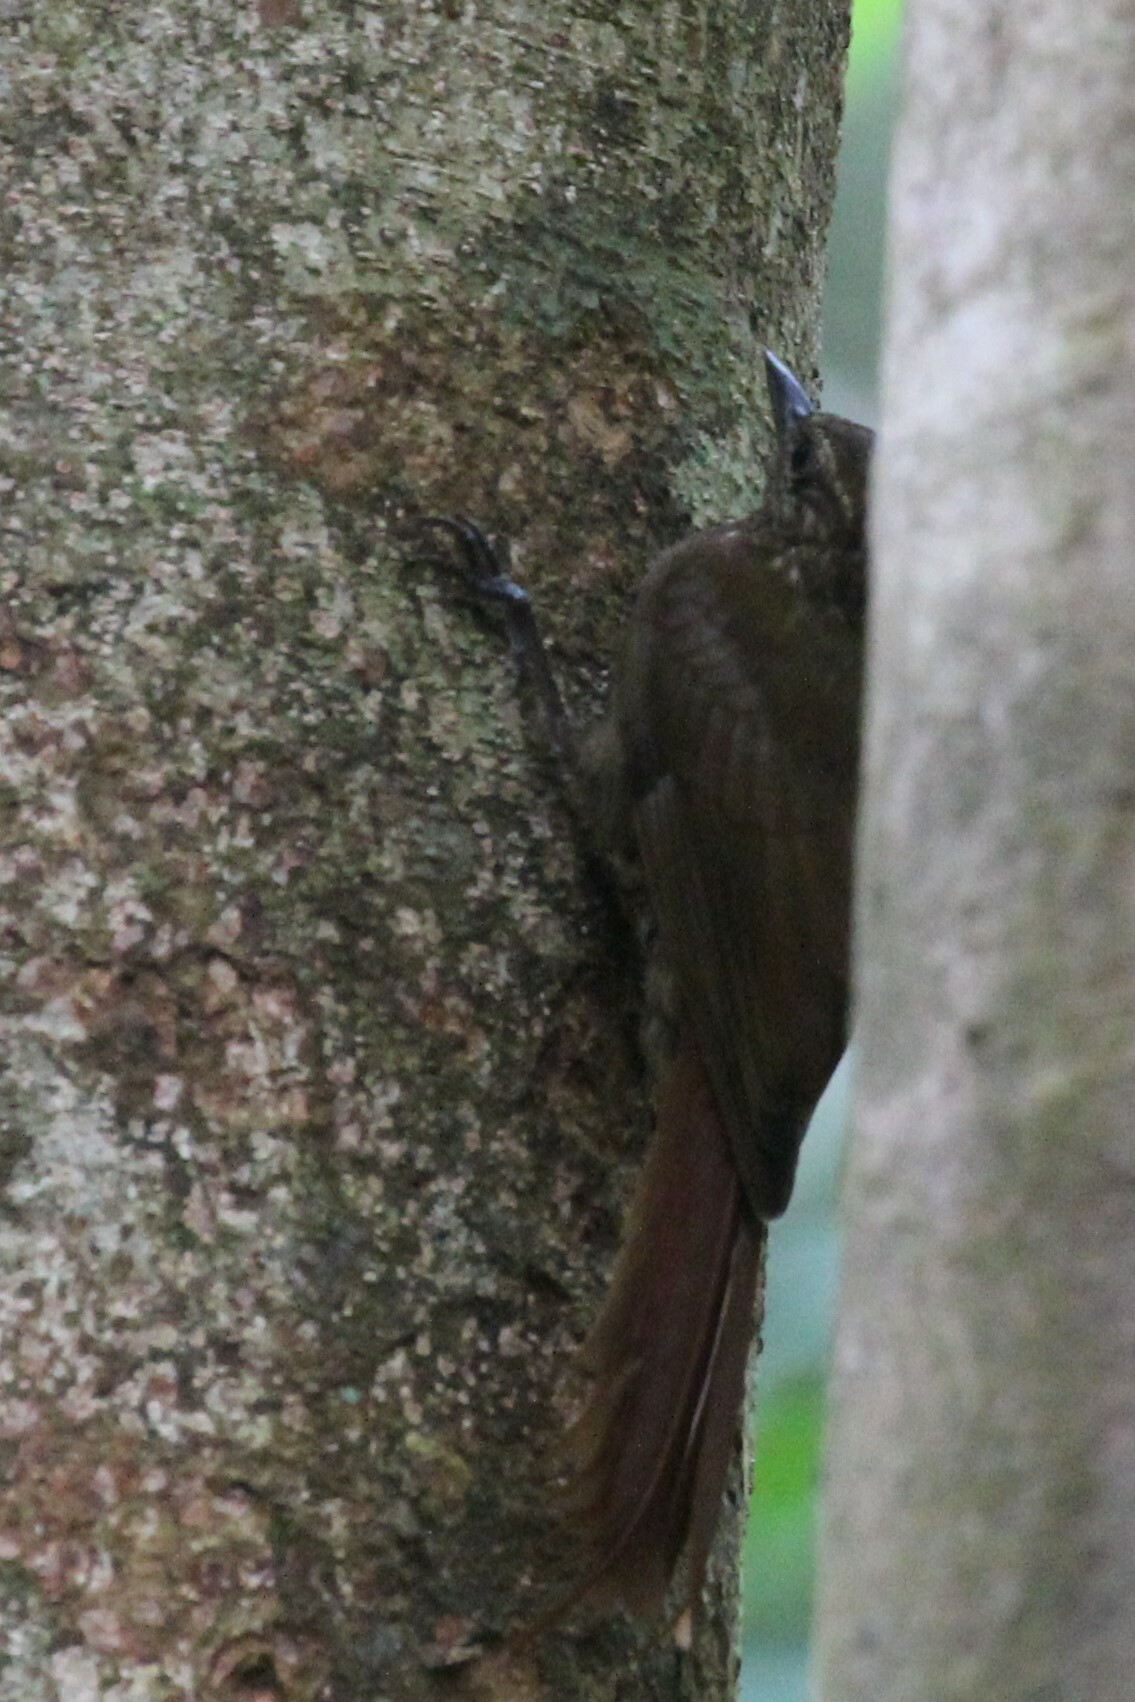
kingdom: Animalia
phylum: Chordata
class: Aves
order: Passeriformes
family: Furnariidae
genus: Glyphorynchus
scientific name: Glyphorynchus spirurus
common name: Wedge-billed woodcreeper
